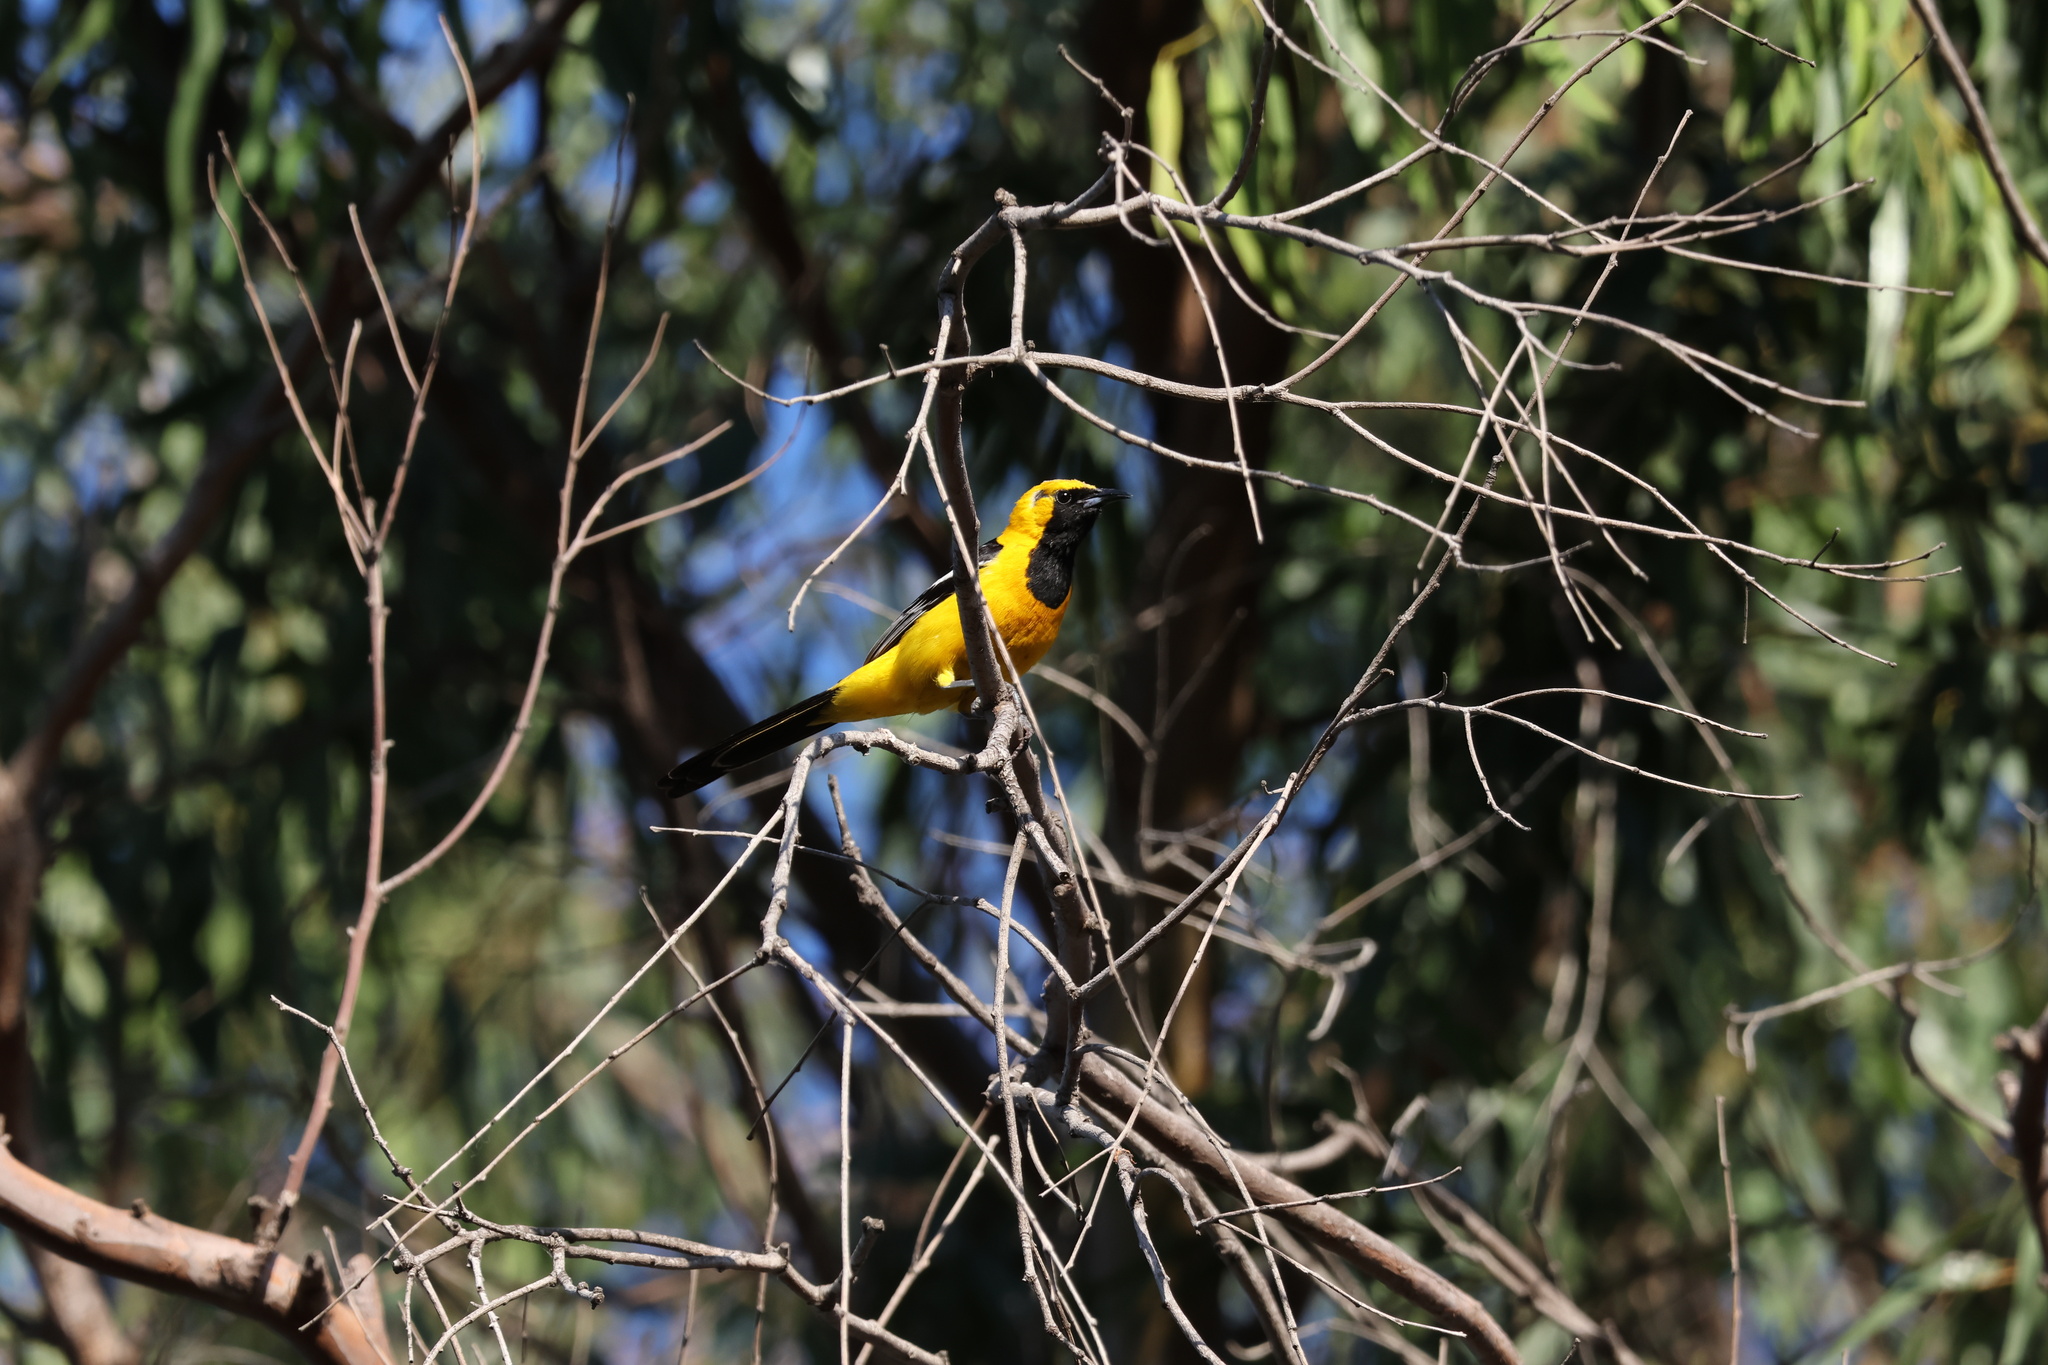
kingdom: Animalia
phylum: Chordata
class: Aves
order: Passeriformes
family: Icteridae
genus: Icterus
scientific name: Icterus cucullatus
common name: Hooded oriole
